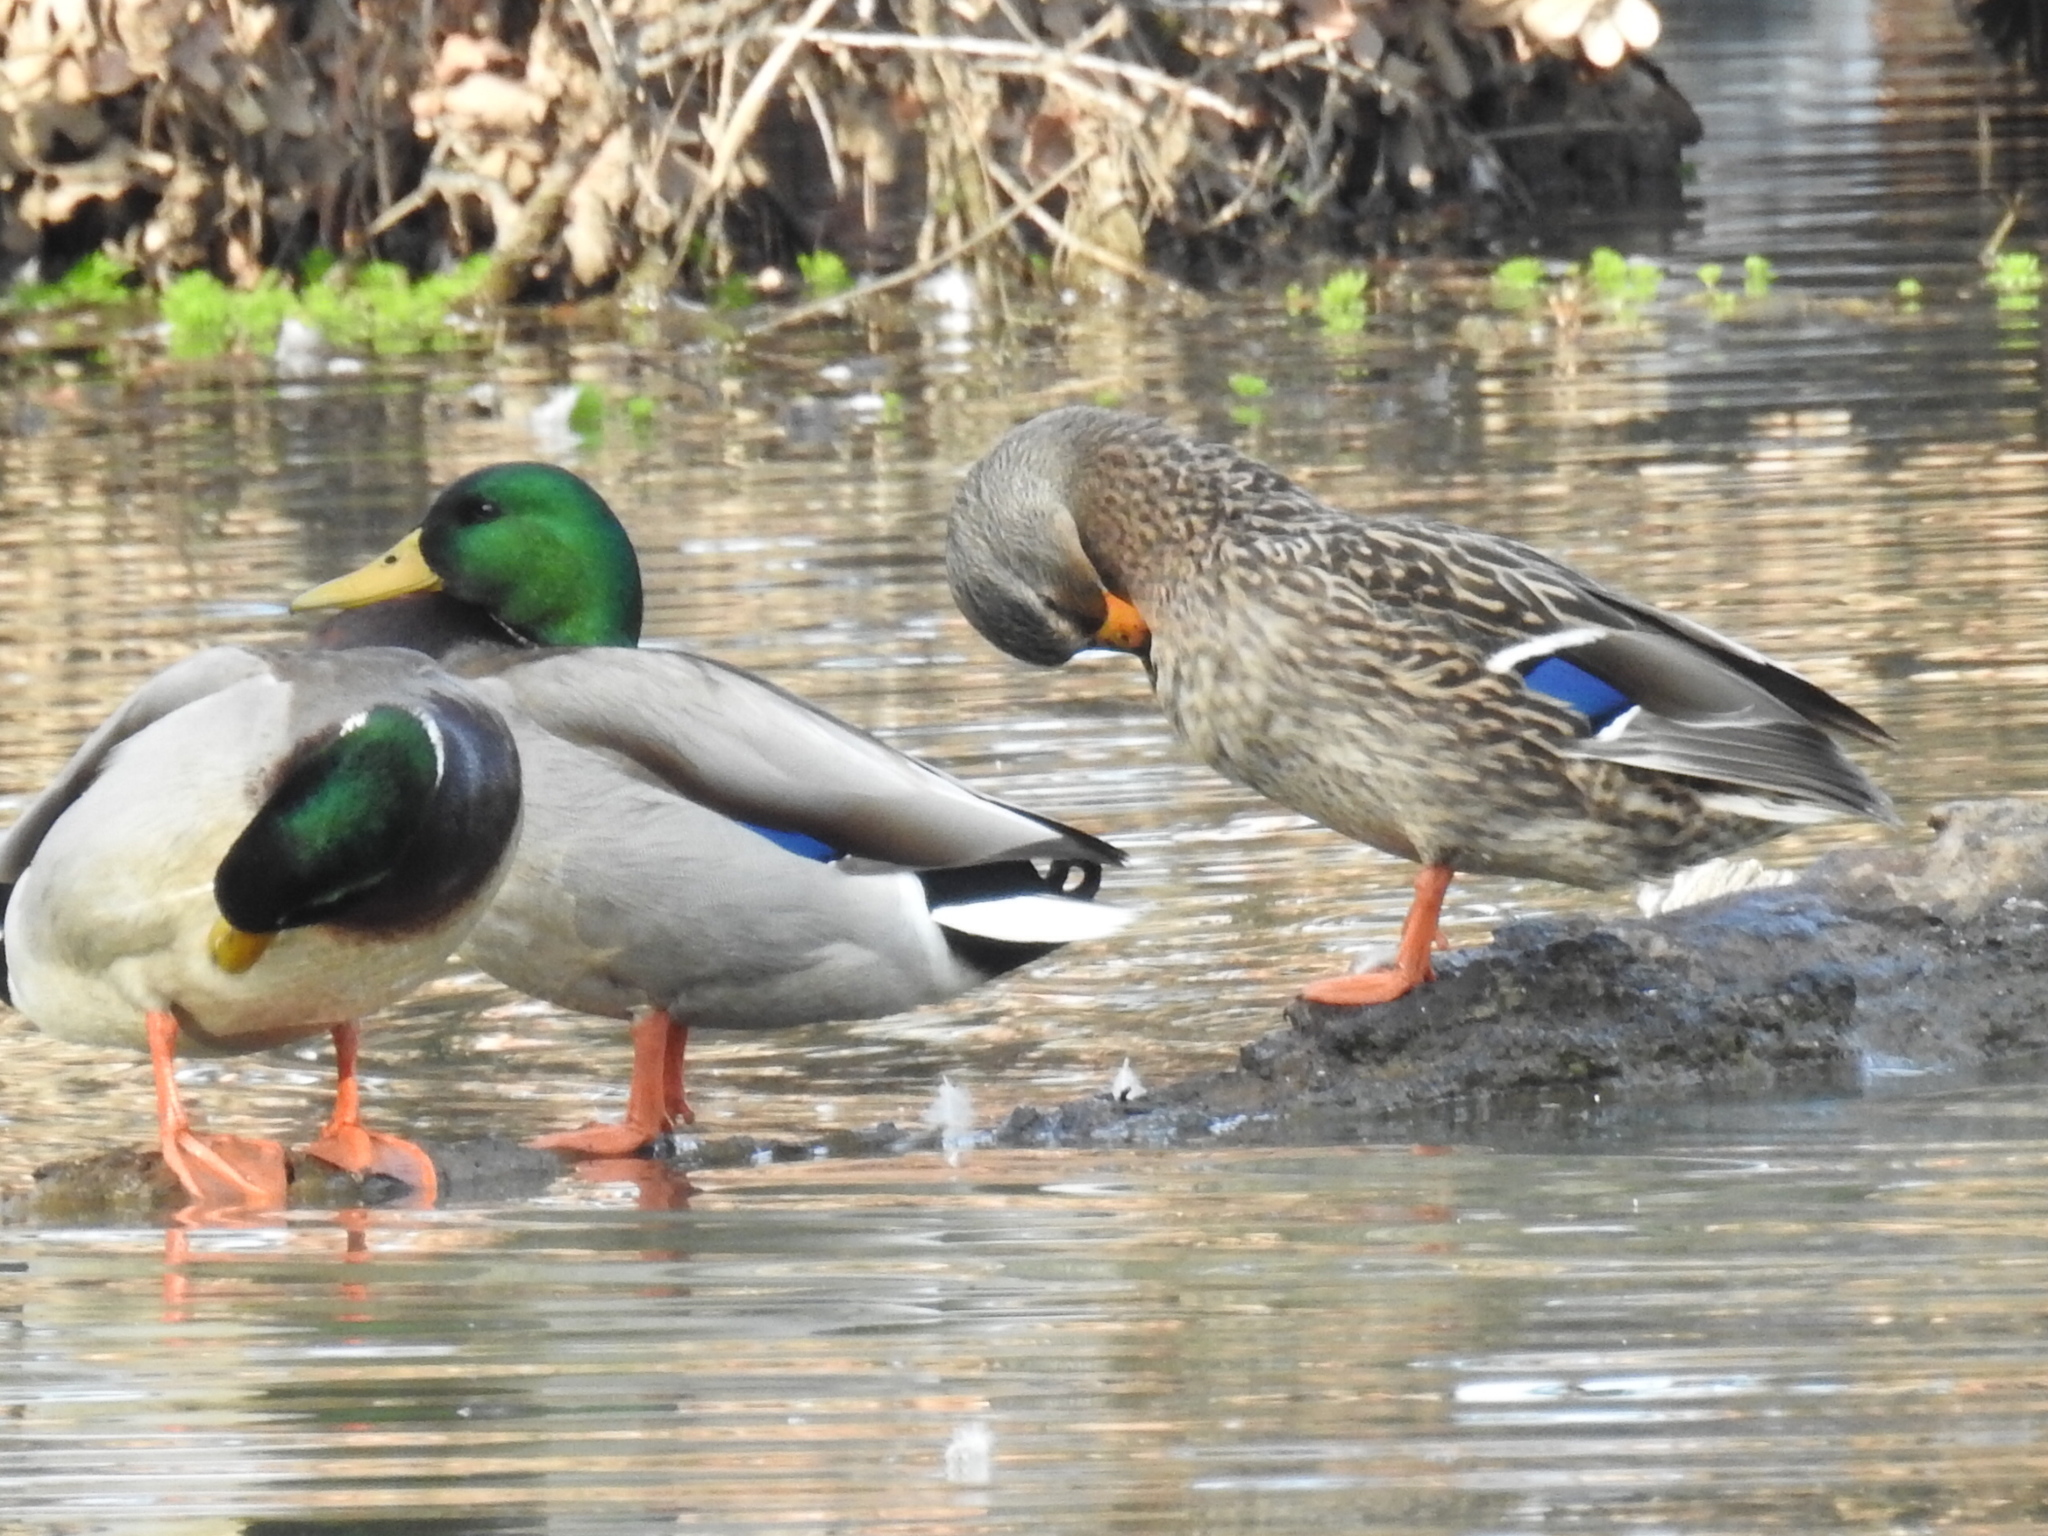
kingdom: Animalia
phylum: Chordata
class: Aves
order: Anseriformes
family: Anatidae
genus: Anas
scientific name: Anas platyrhynchos
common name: Mallard
